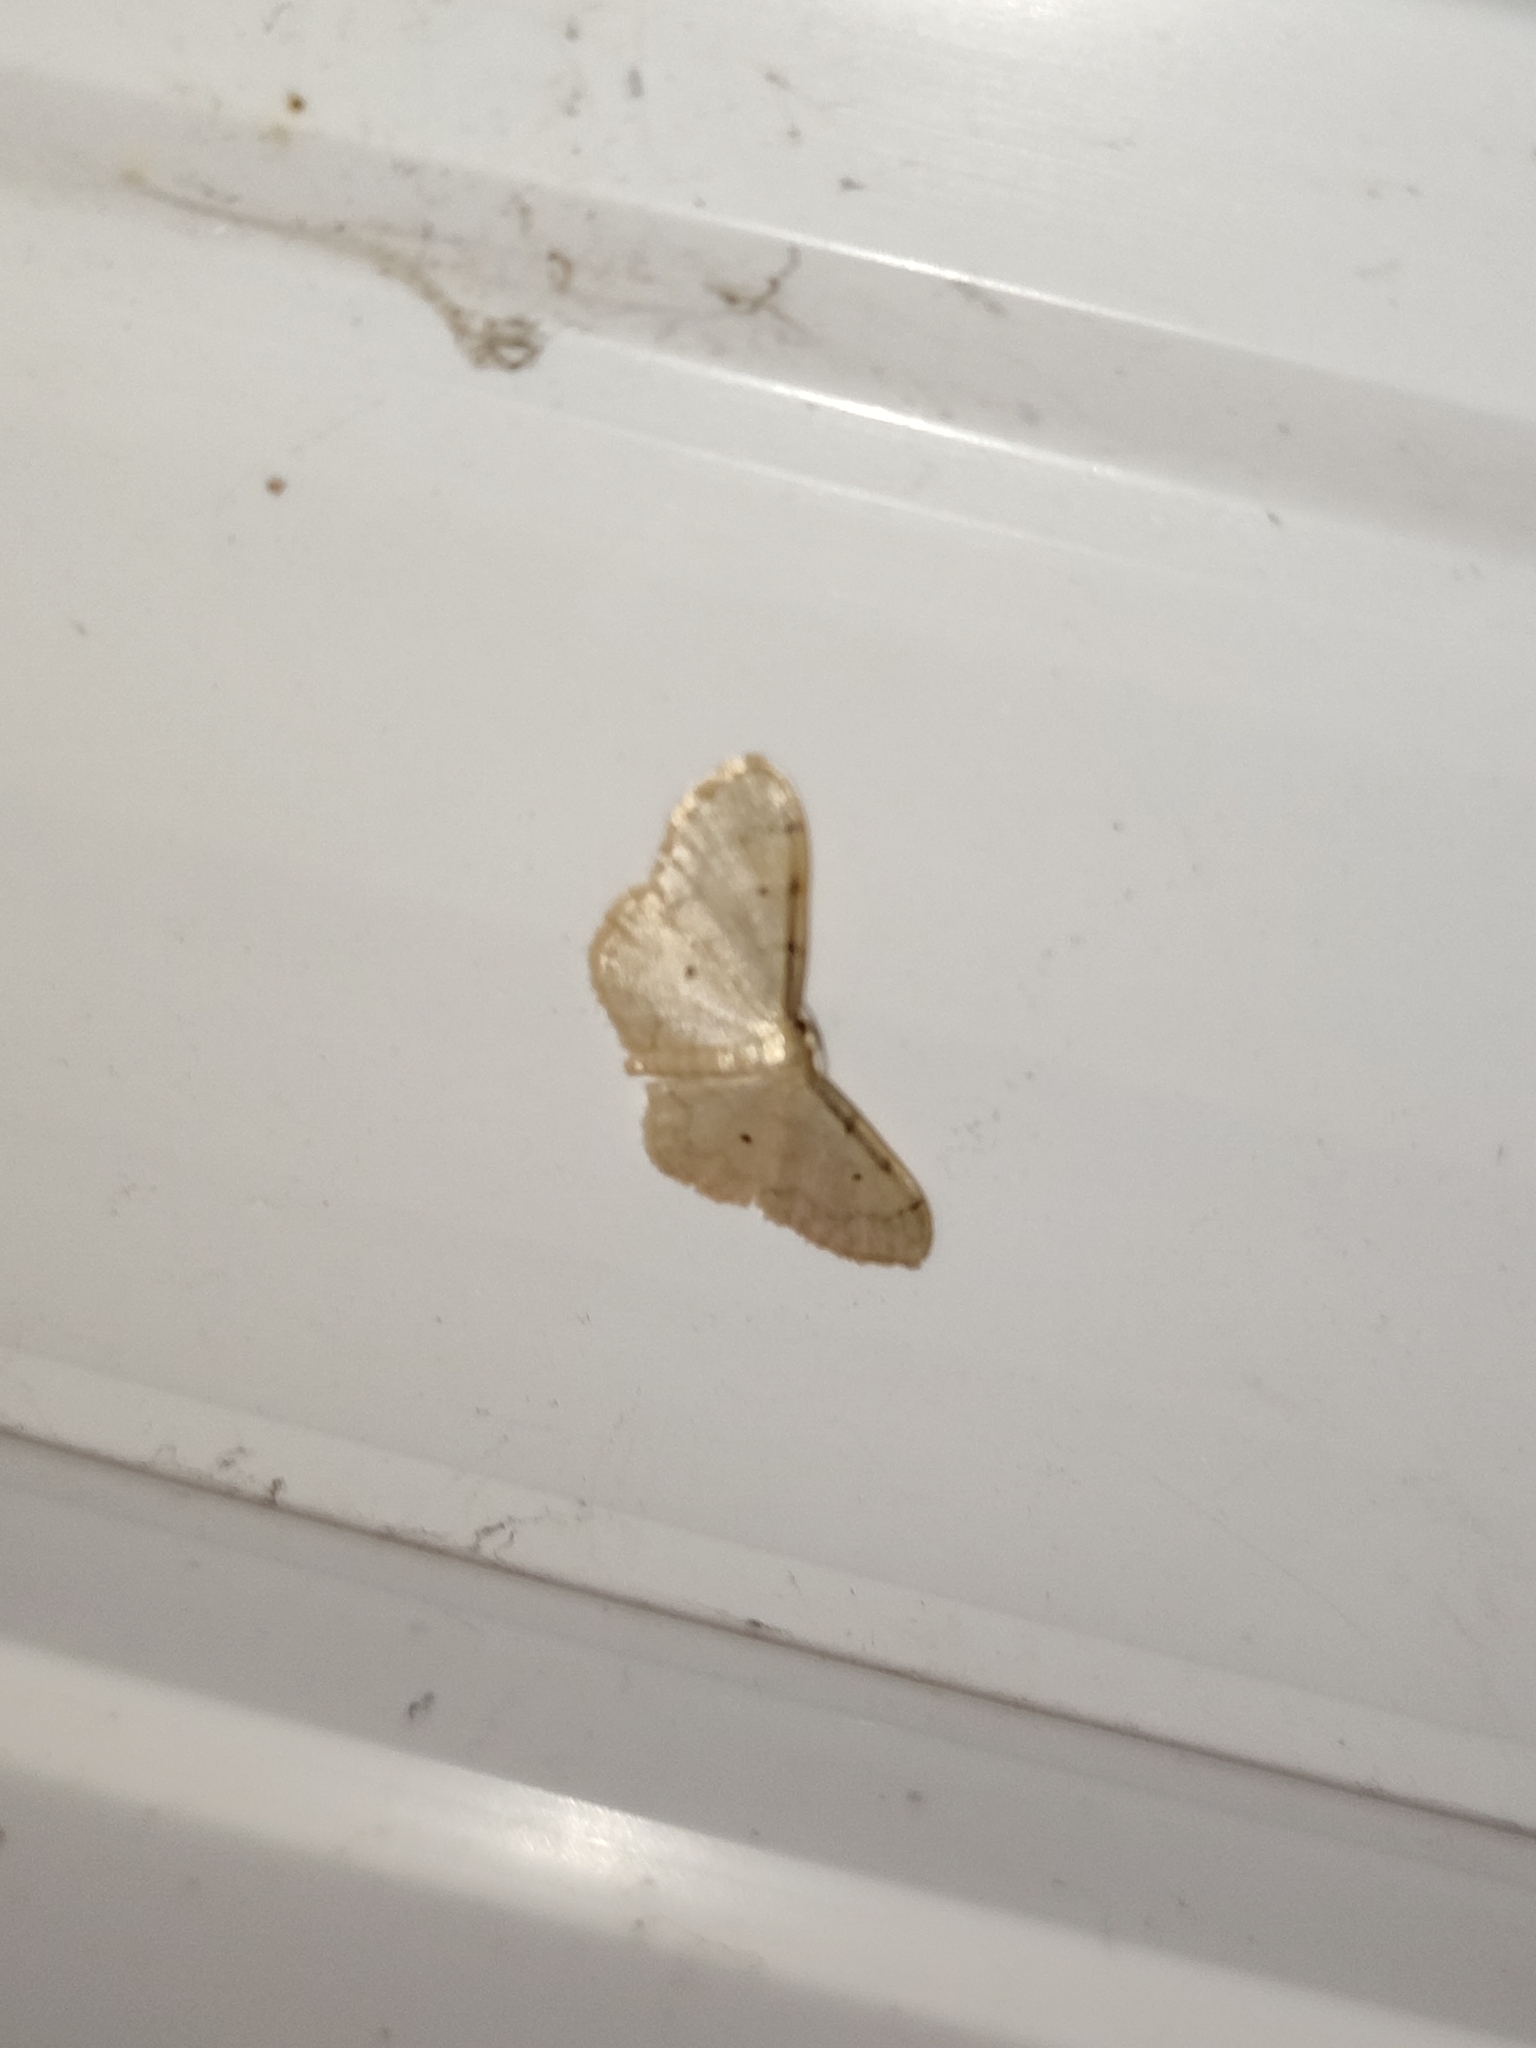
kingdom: Animalia
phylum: Arthropoda
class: Insecta
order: Lepidoptera
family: Geometridae
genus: Idaea
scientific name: Idaea politaria
